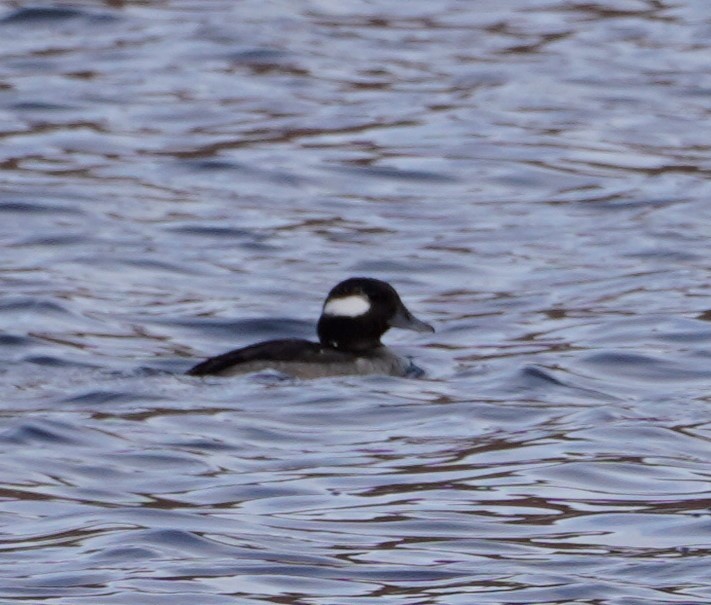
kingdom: Animalia
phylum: Chordata
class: Aves
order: Anseriformes
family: Anatidae
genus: Bucephala
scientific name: Bucephala albeola
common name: Bufflehead
